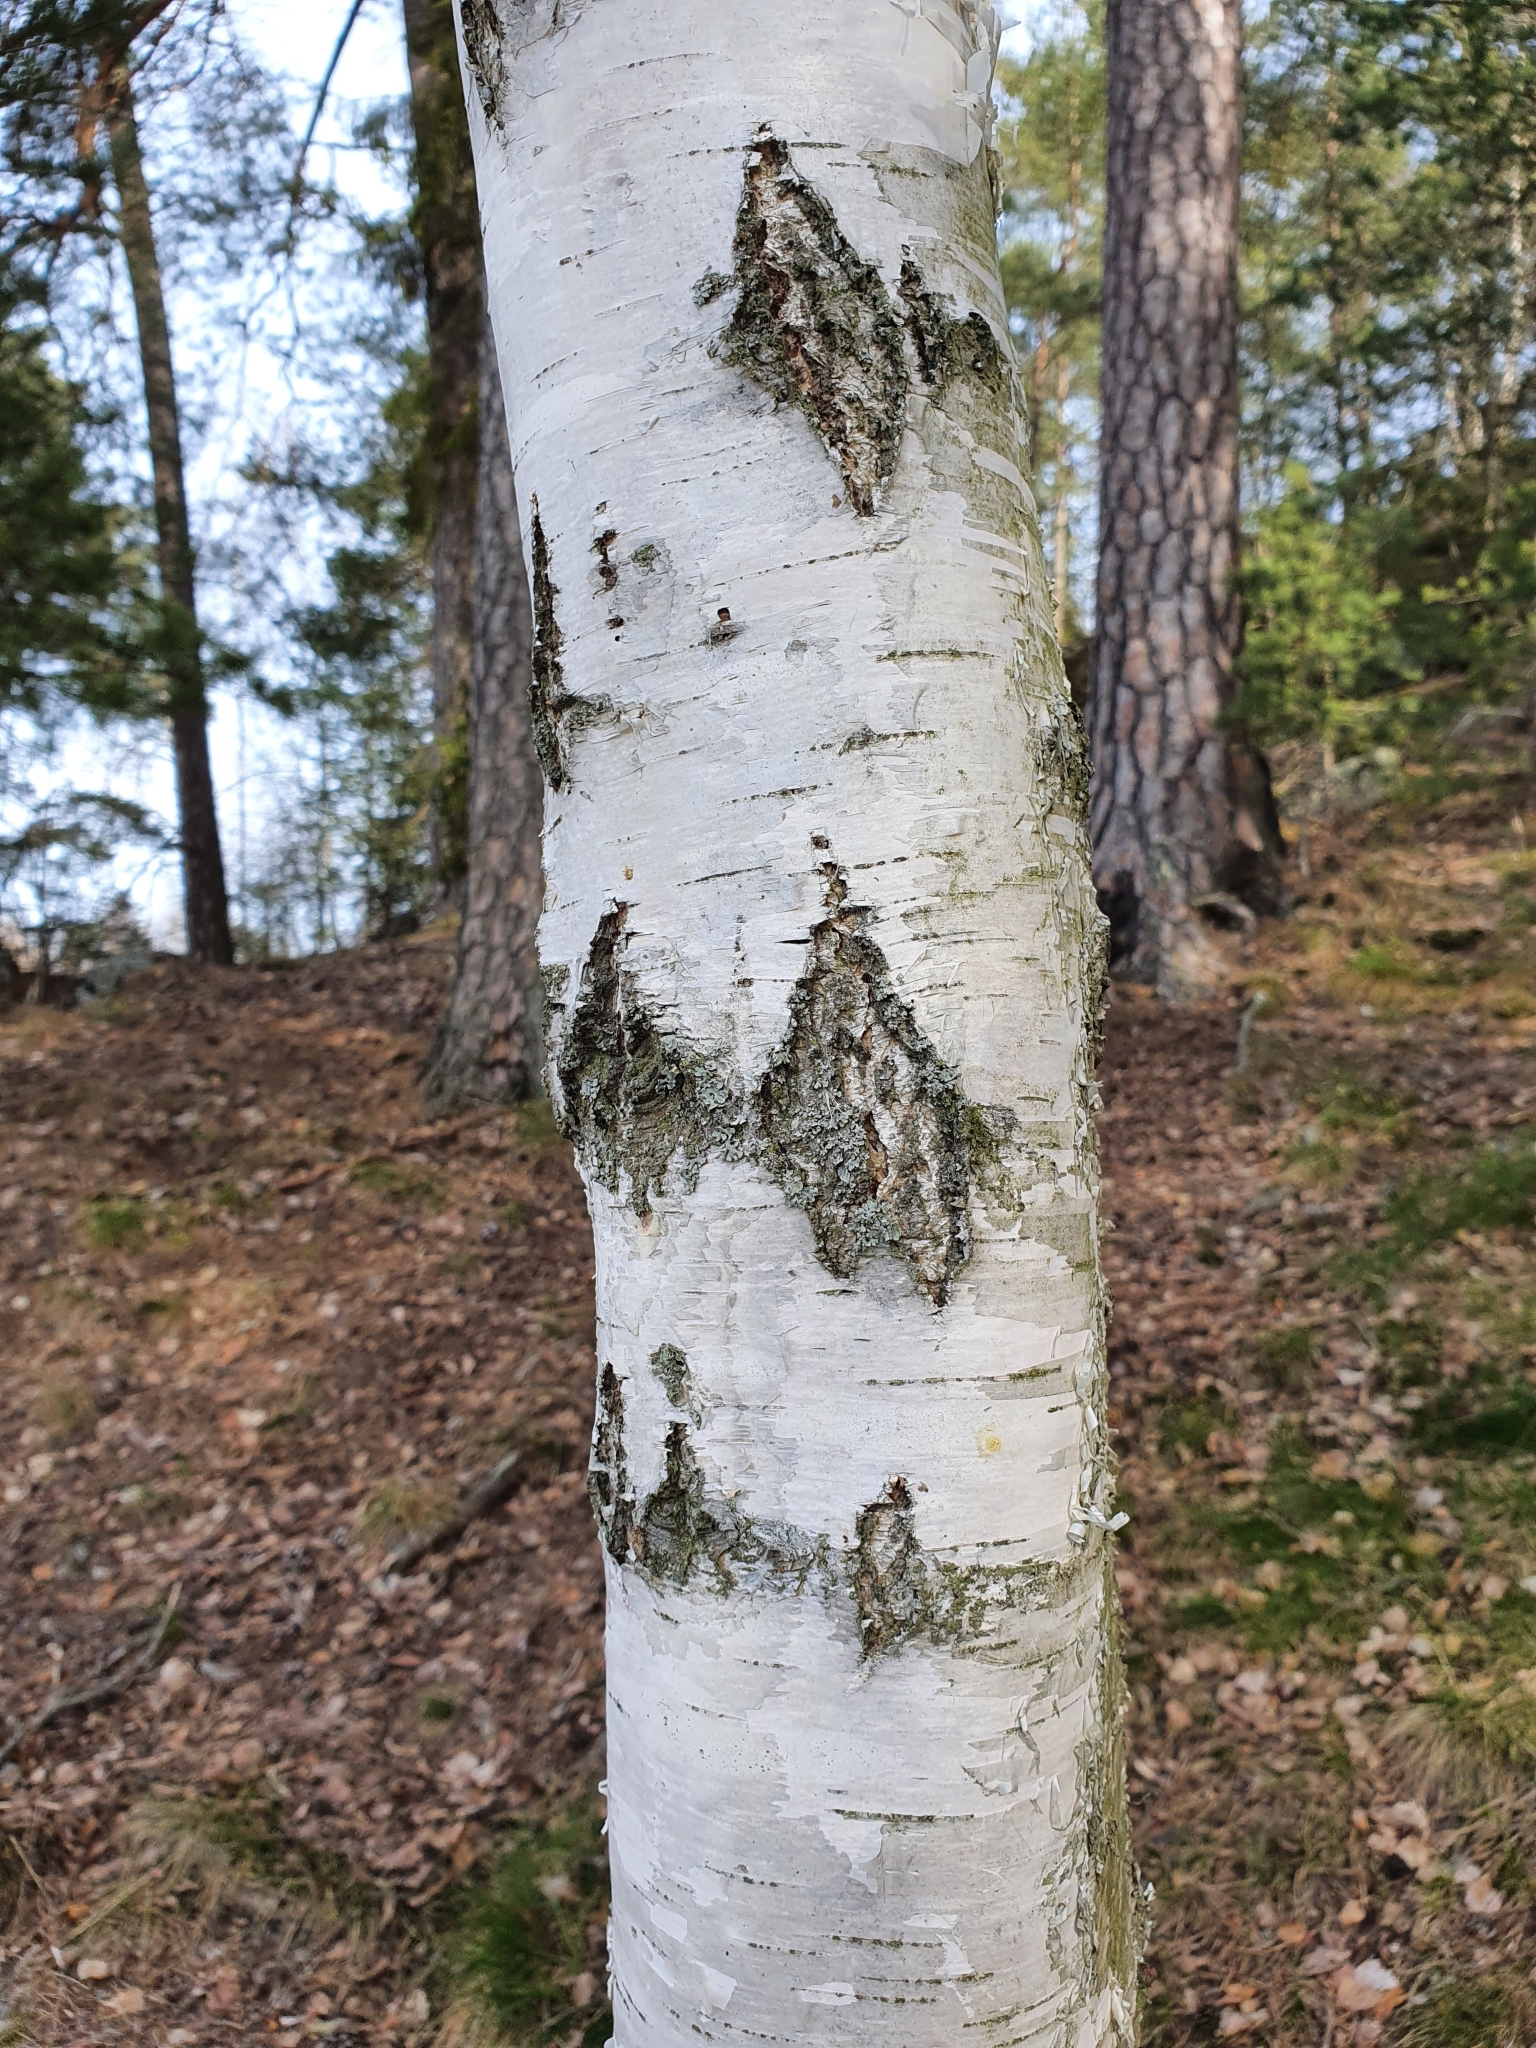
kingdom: Plantae
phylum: Tracheophyta
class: Magnoliopsida
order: Fagales
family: Betulaceae
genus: Betula
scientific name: Betula pendula
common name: Silver birch
